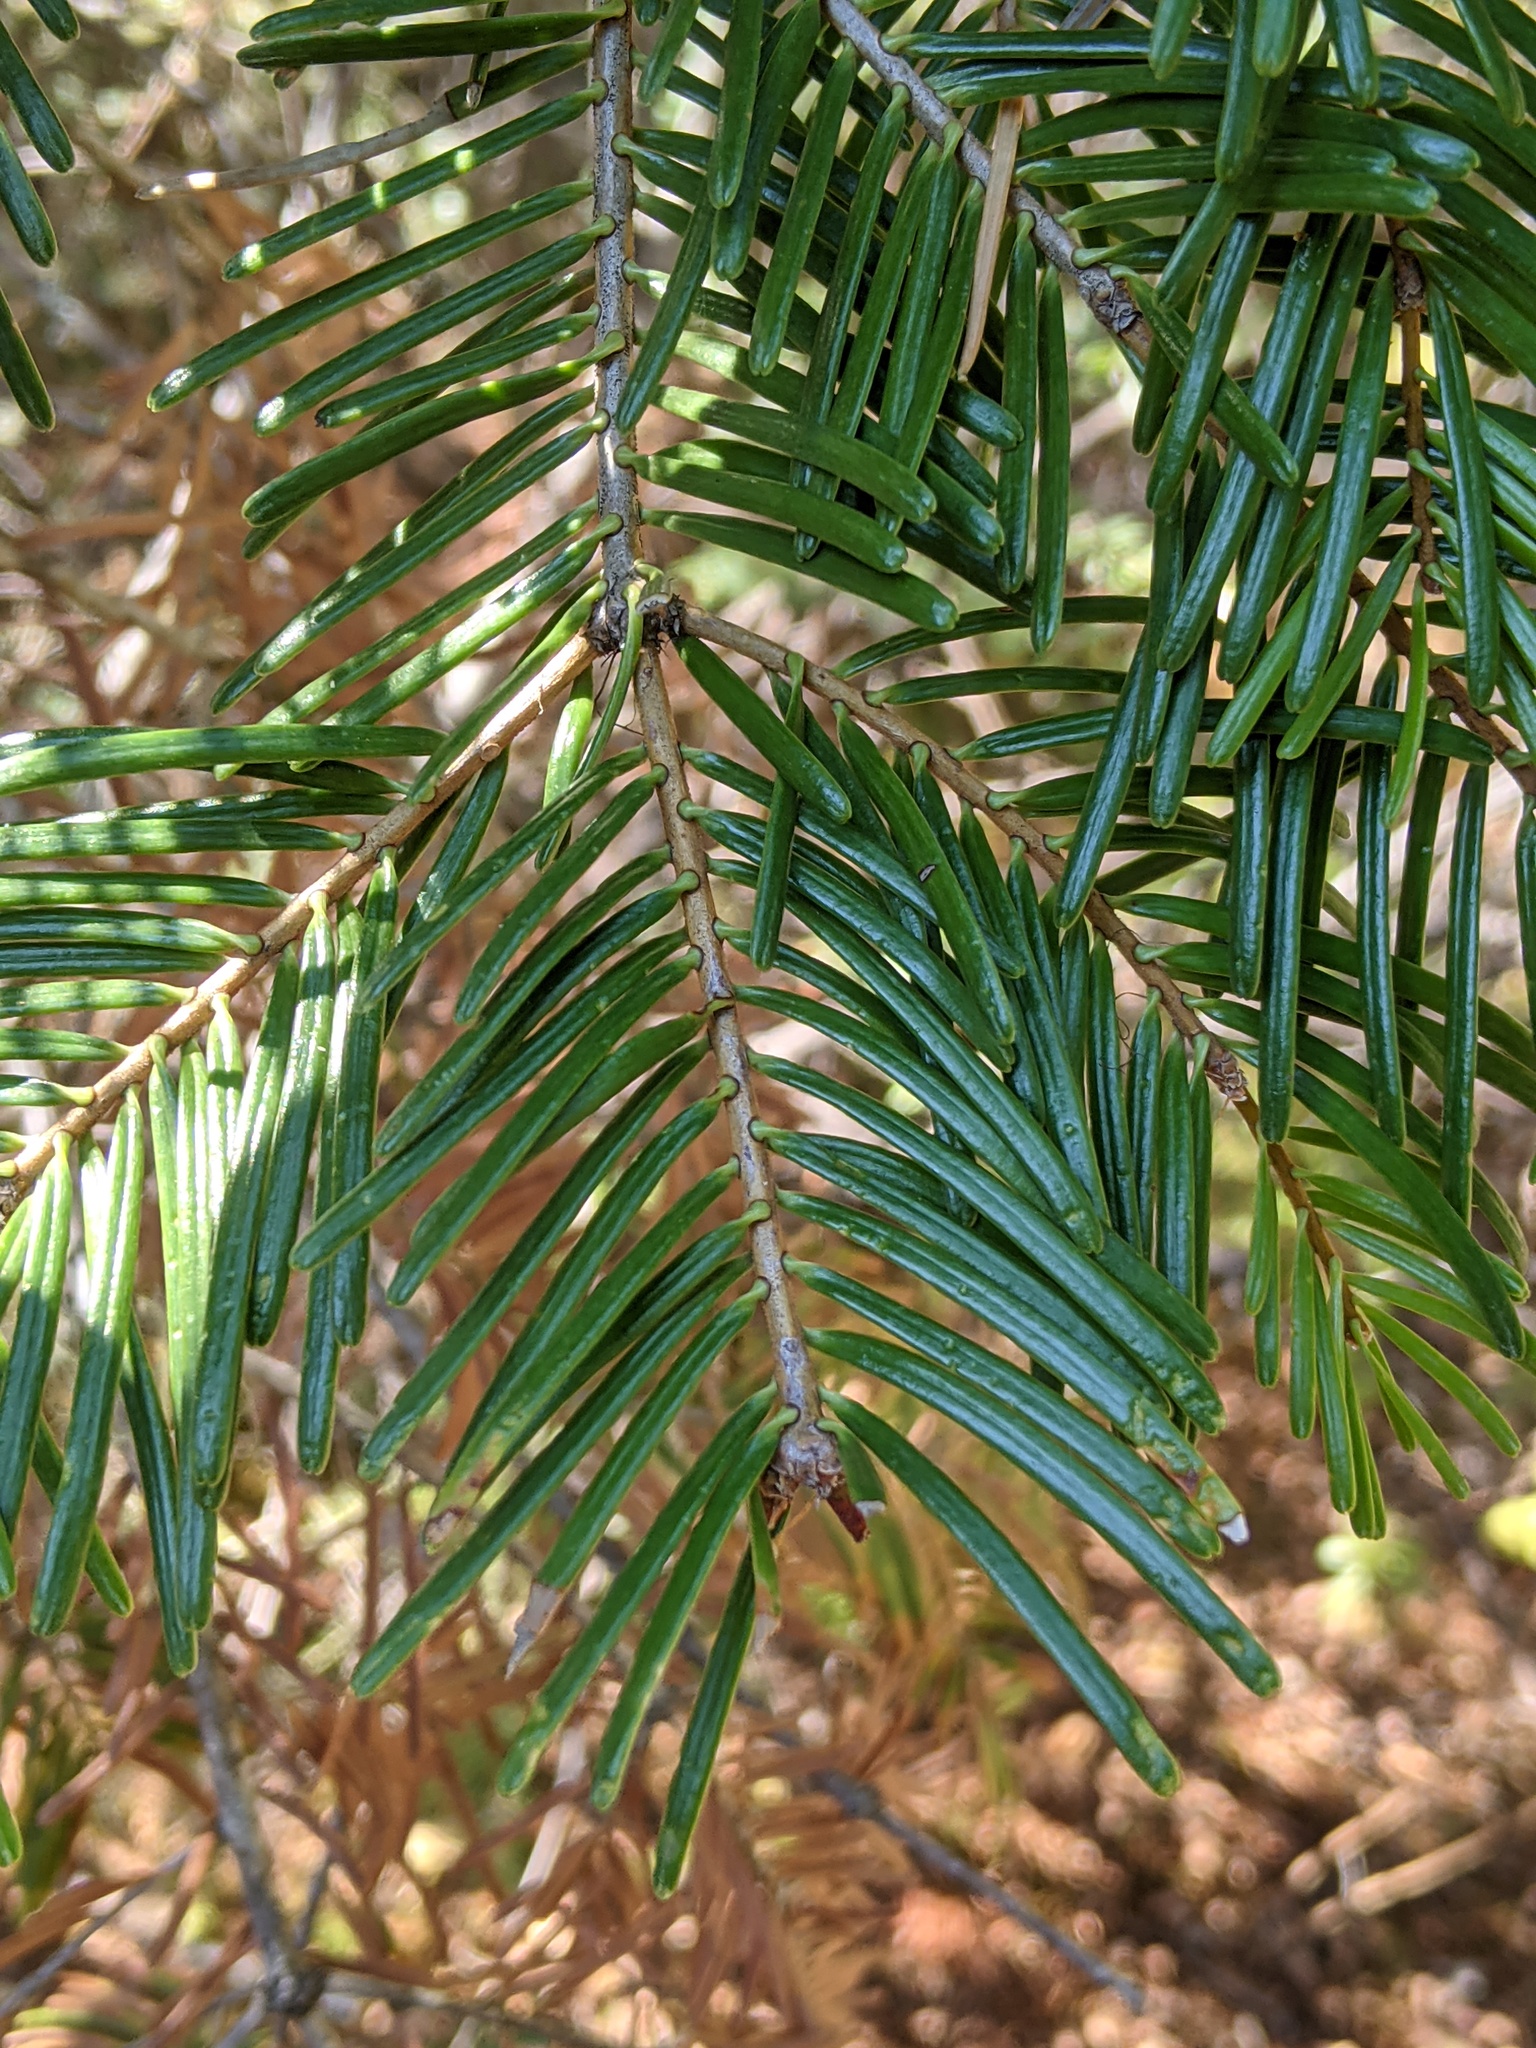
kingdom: Plantae
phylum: Tracheophyta
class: Pinopsida
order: Pinales
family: Pinaceae
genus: Abies
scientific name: Abies concolor
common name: Colorado fir
